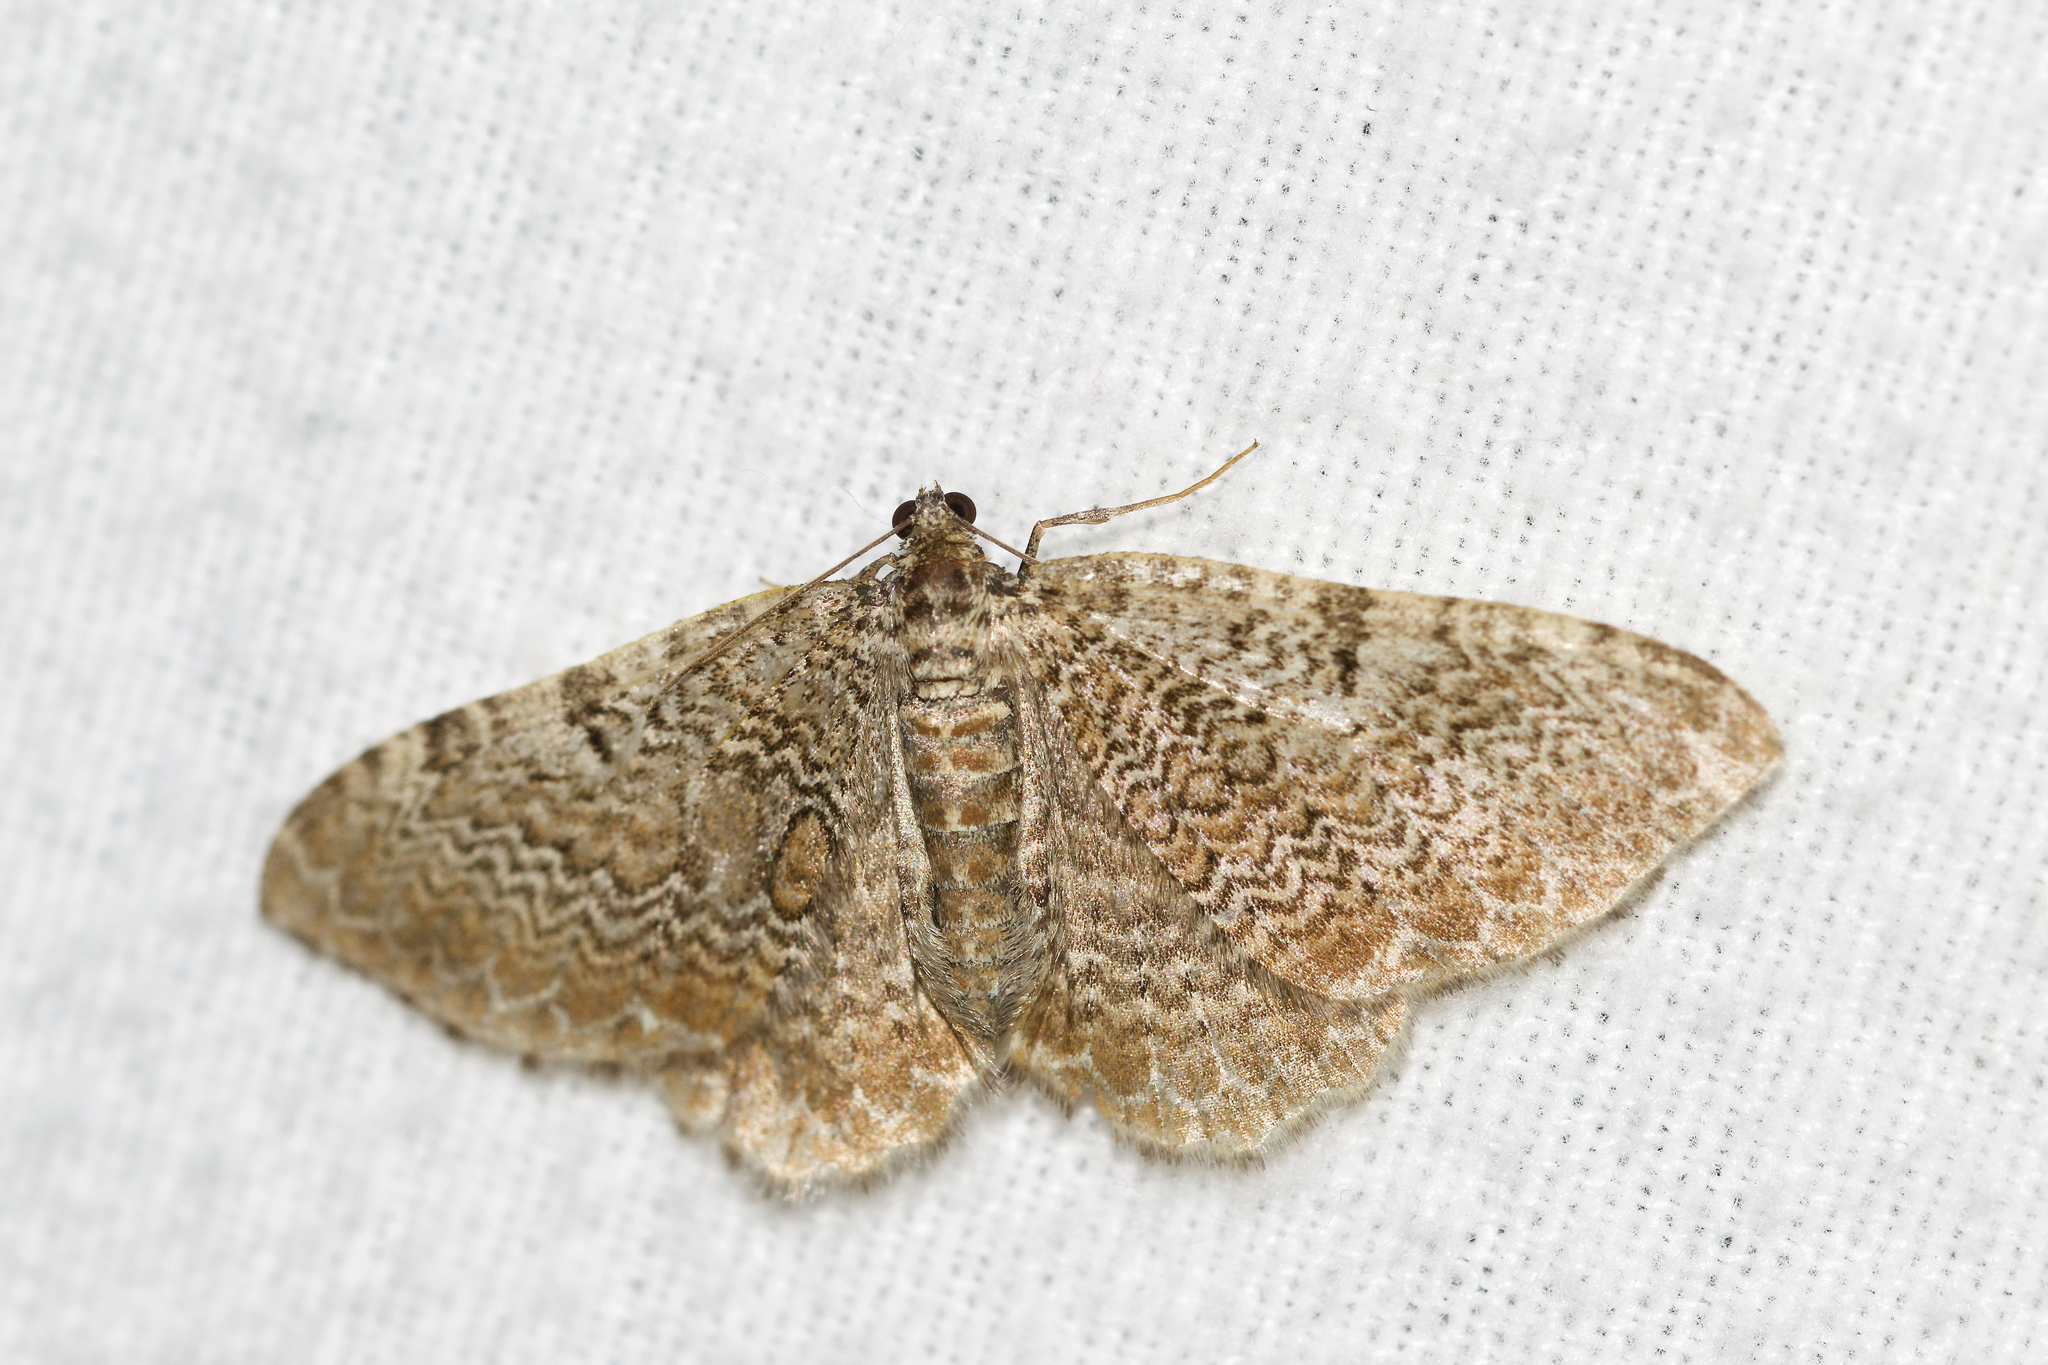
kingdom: Animalia
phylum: Arthropoda
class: Insecta
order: Lepidoptera
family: Geometridae
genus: Rheumaptera
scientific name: Rheumaptera prunivorata
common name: Cherry scallop shell moth
